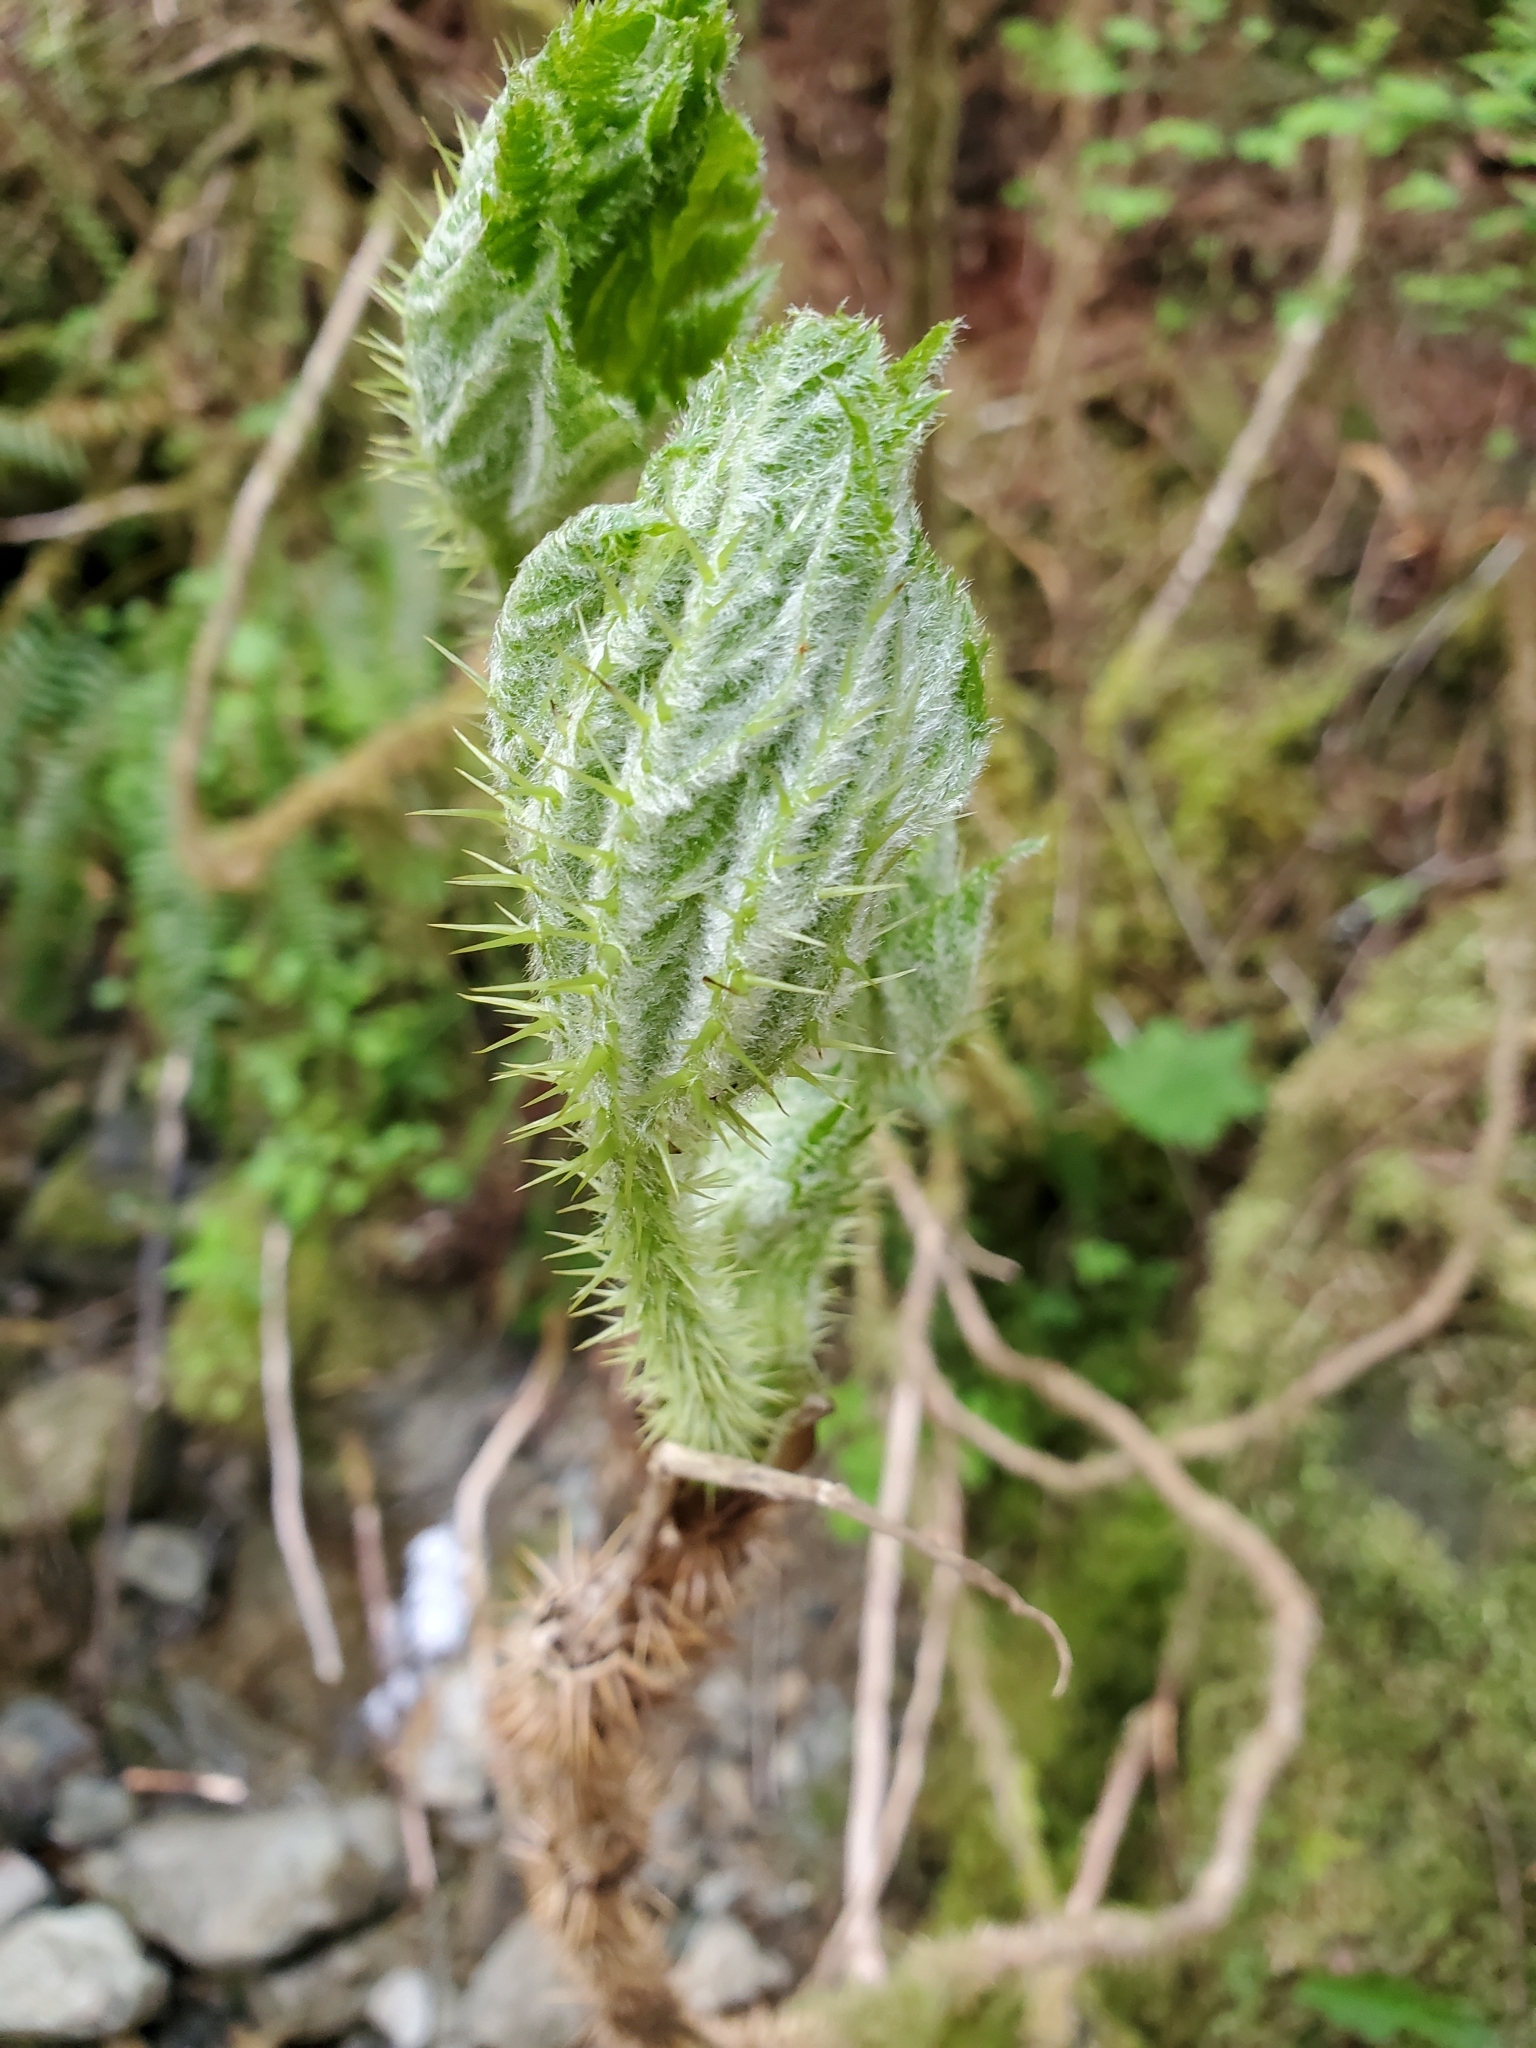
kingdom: Plantae
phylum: Tracheophyta
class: Magnoliopsida
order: Apiales
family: Araliaceae
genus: Oplopanax
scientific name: Oplopanax horridus
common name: Devil's walking-stick
